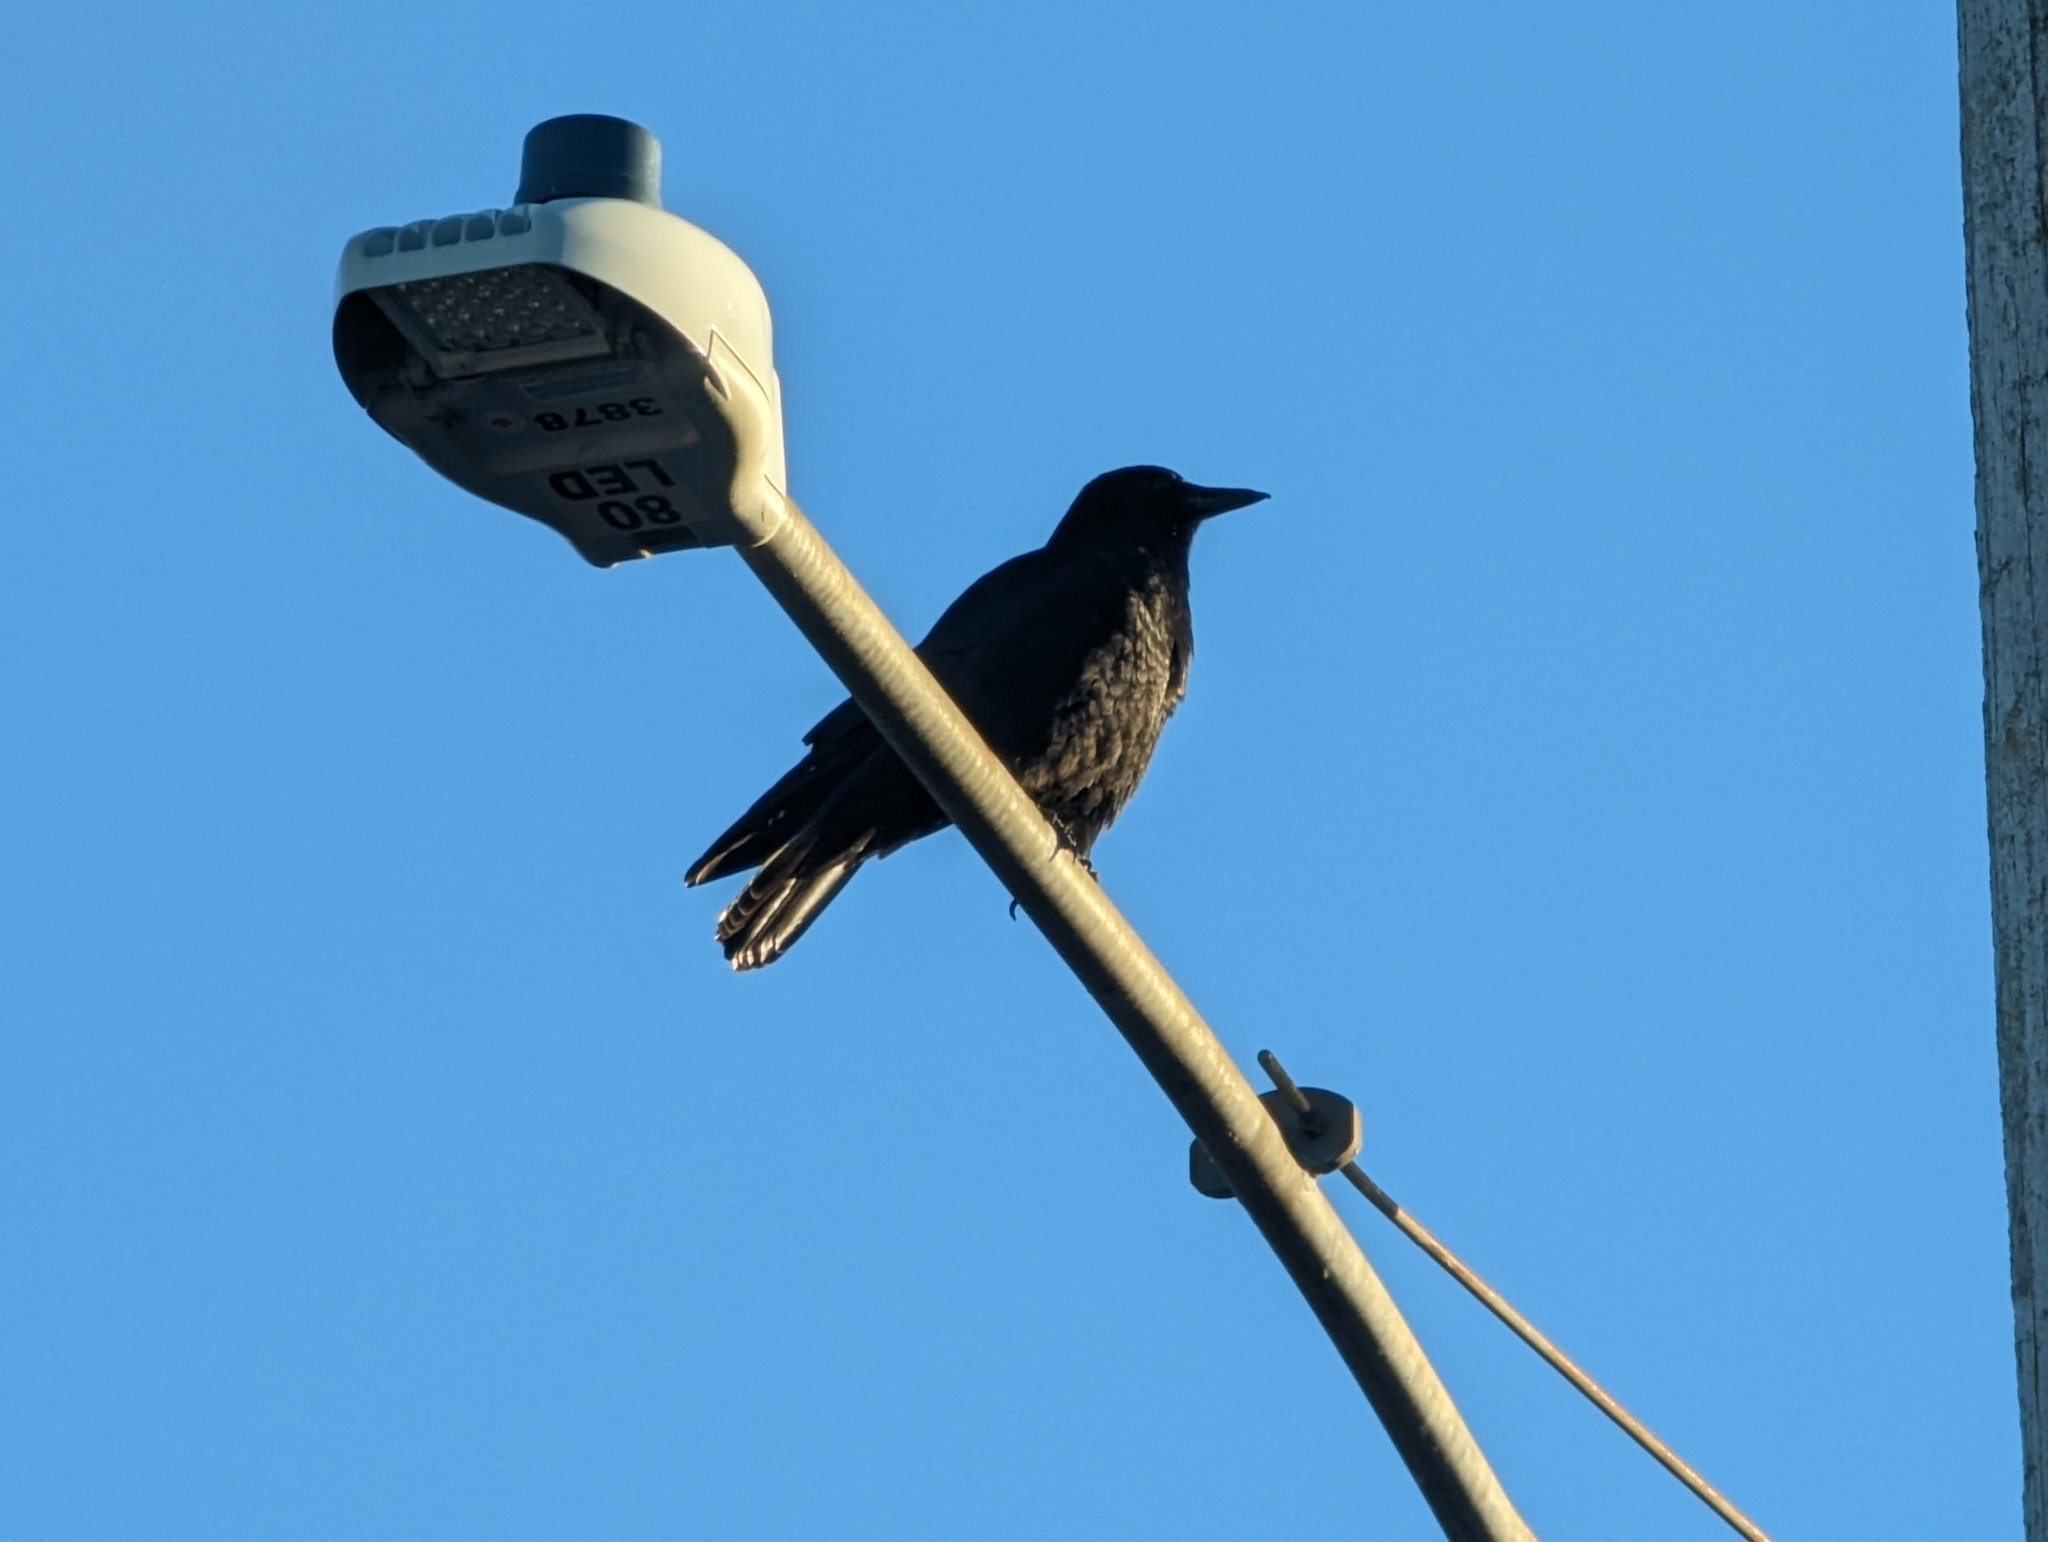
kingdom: Animalia
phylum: Chordata
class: Aves
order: Passeriformes
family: Corvidae
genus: Corvus
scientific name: Corvus brachyrhynchos
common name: American crow
